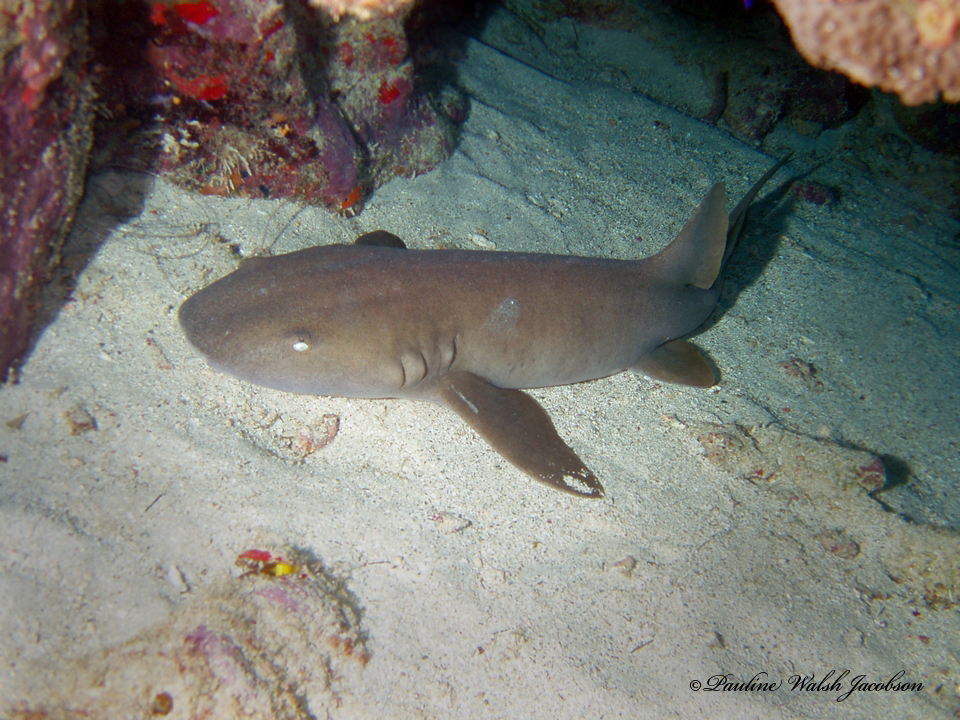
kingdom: Animalia
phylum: Chordata
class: Elasmobranchii
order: Orectolobiformes
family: Ginglymostomatidae
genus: Ginglymostoma
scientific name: Ginglymostoma cirratum
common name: Nurse shark
